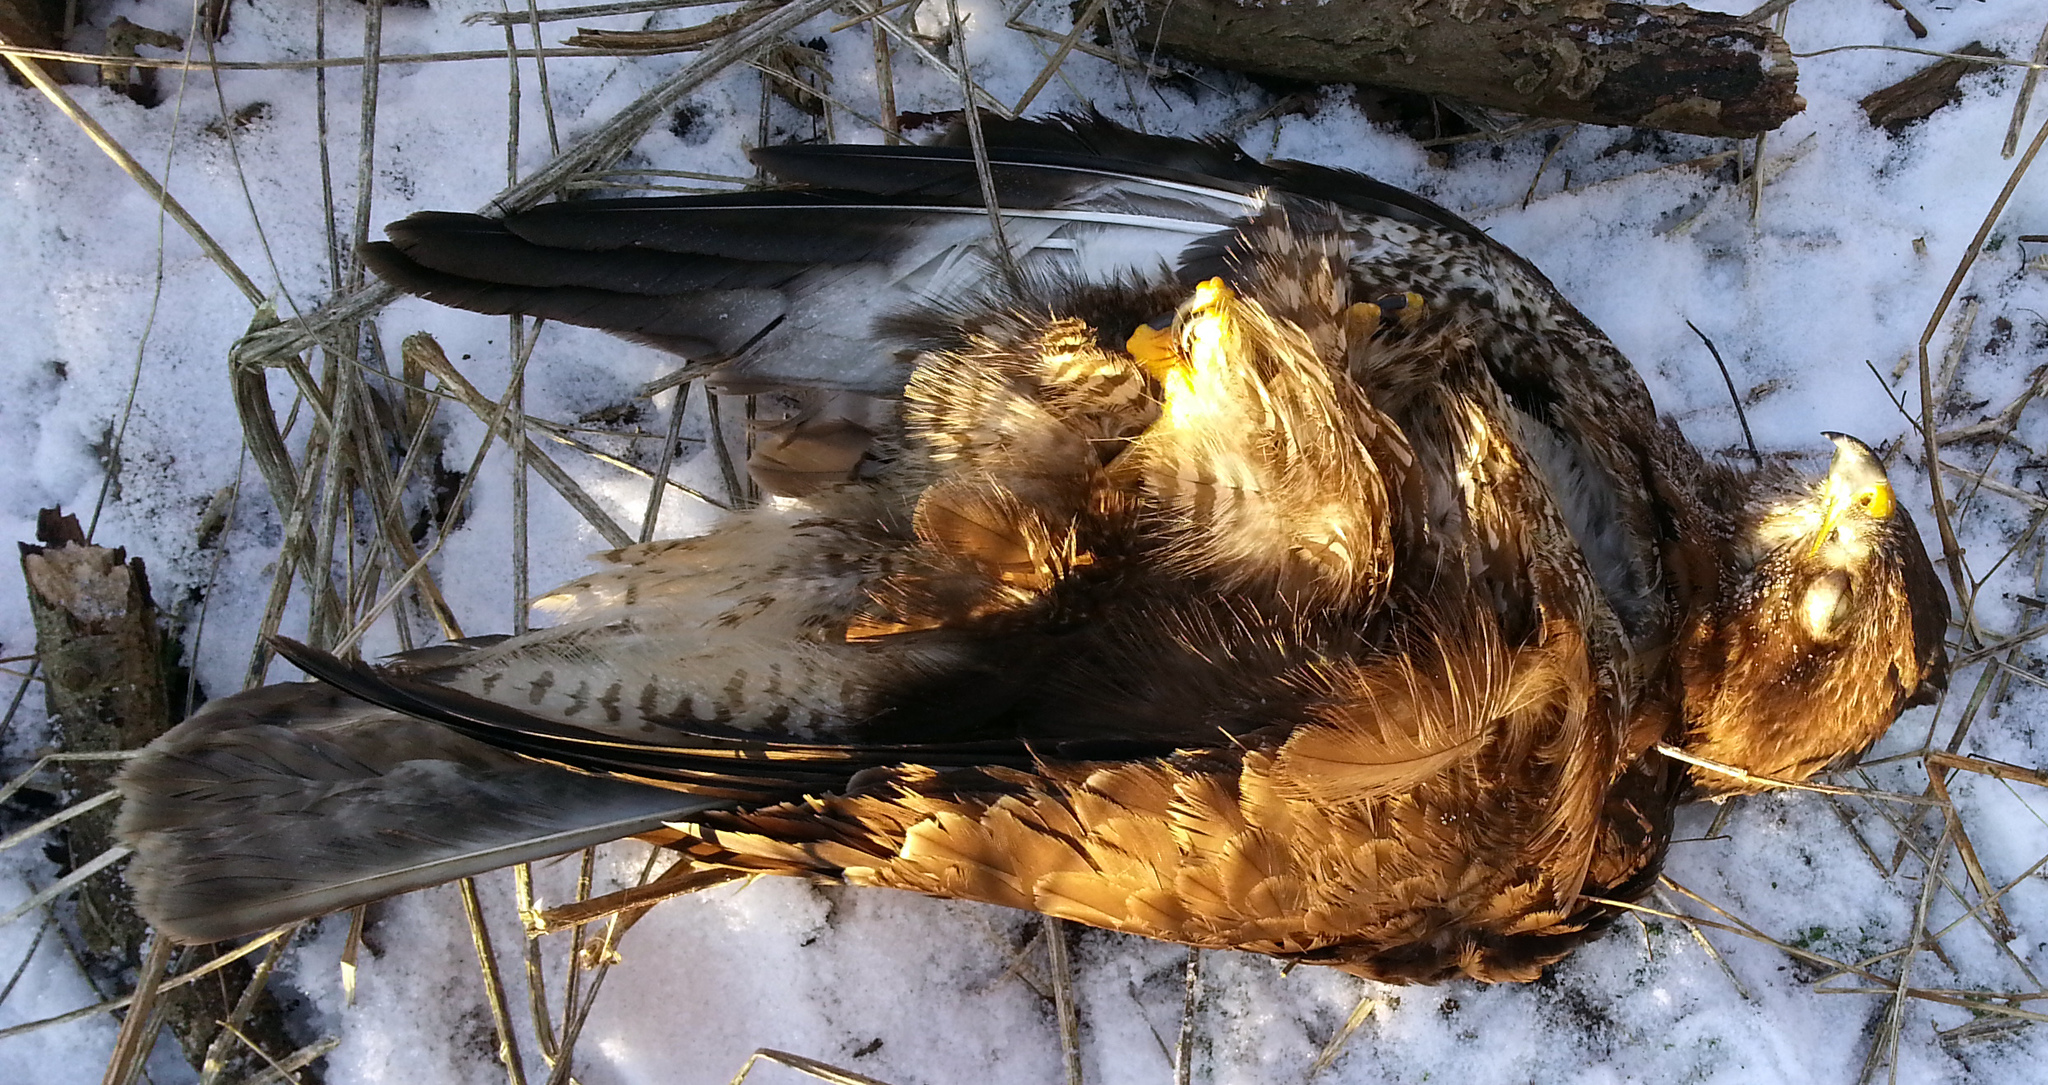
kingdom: Animalia
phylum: Chordata
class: Aves
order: Accipitriformes
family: Accipitridae
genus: Buteo
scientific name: Buteo buteo
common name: Common buzzard
